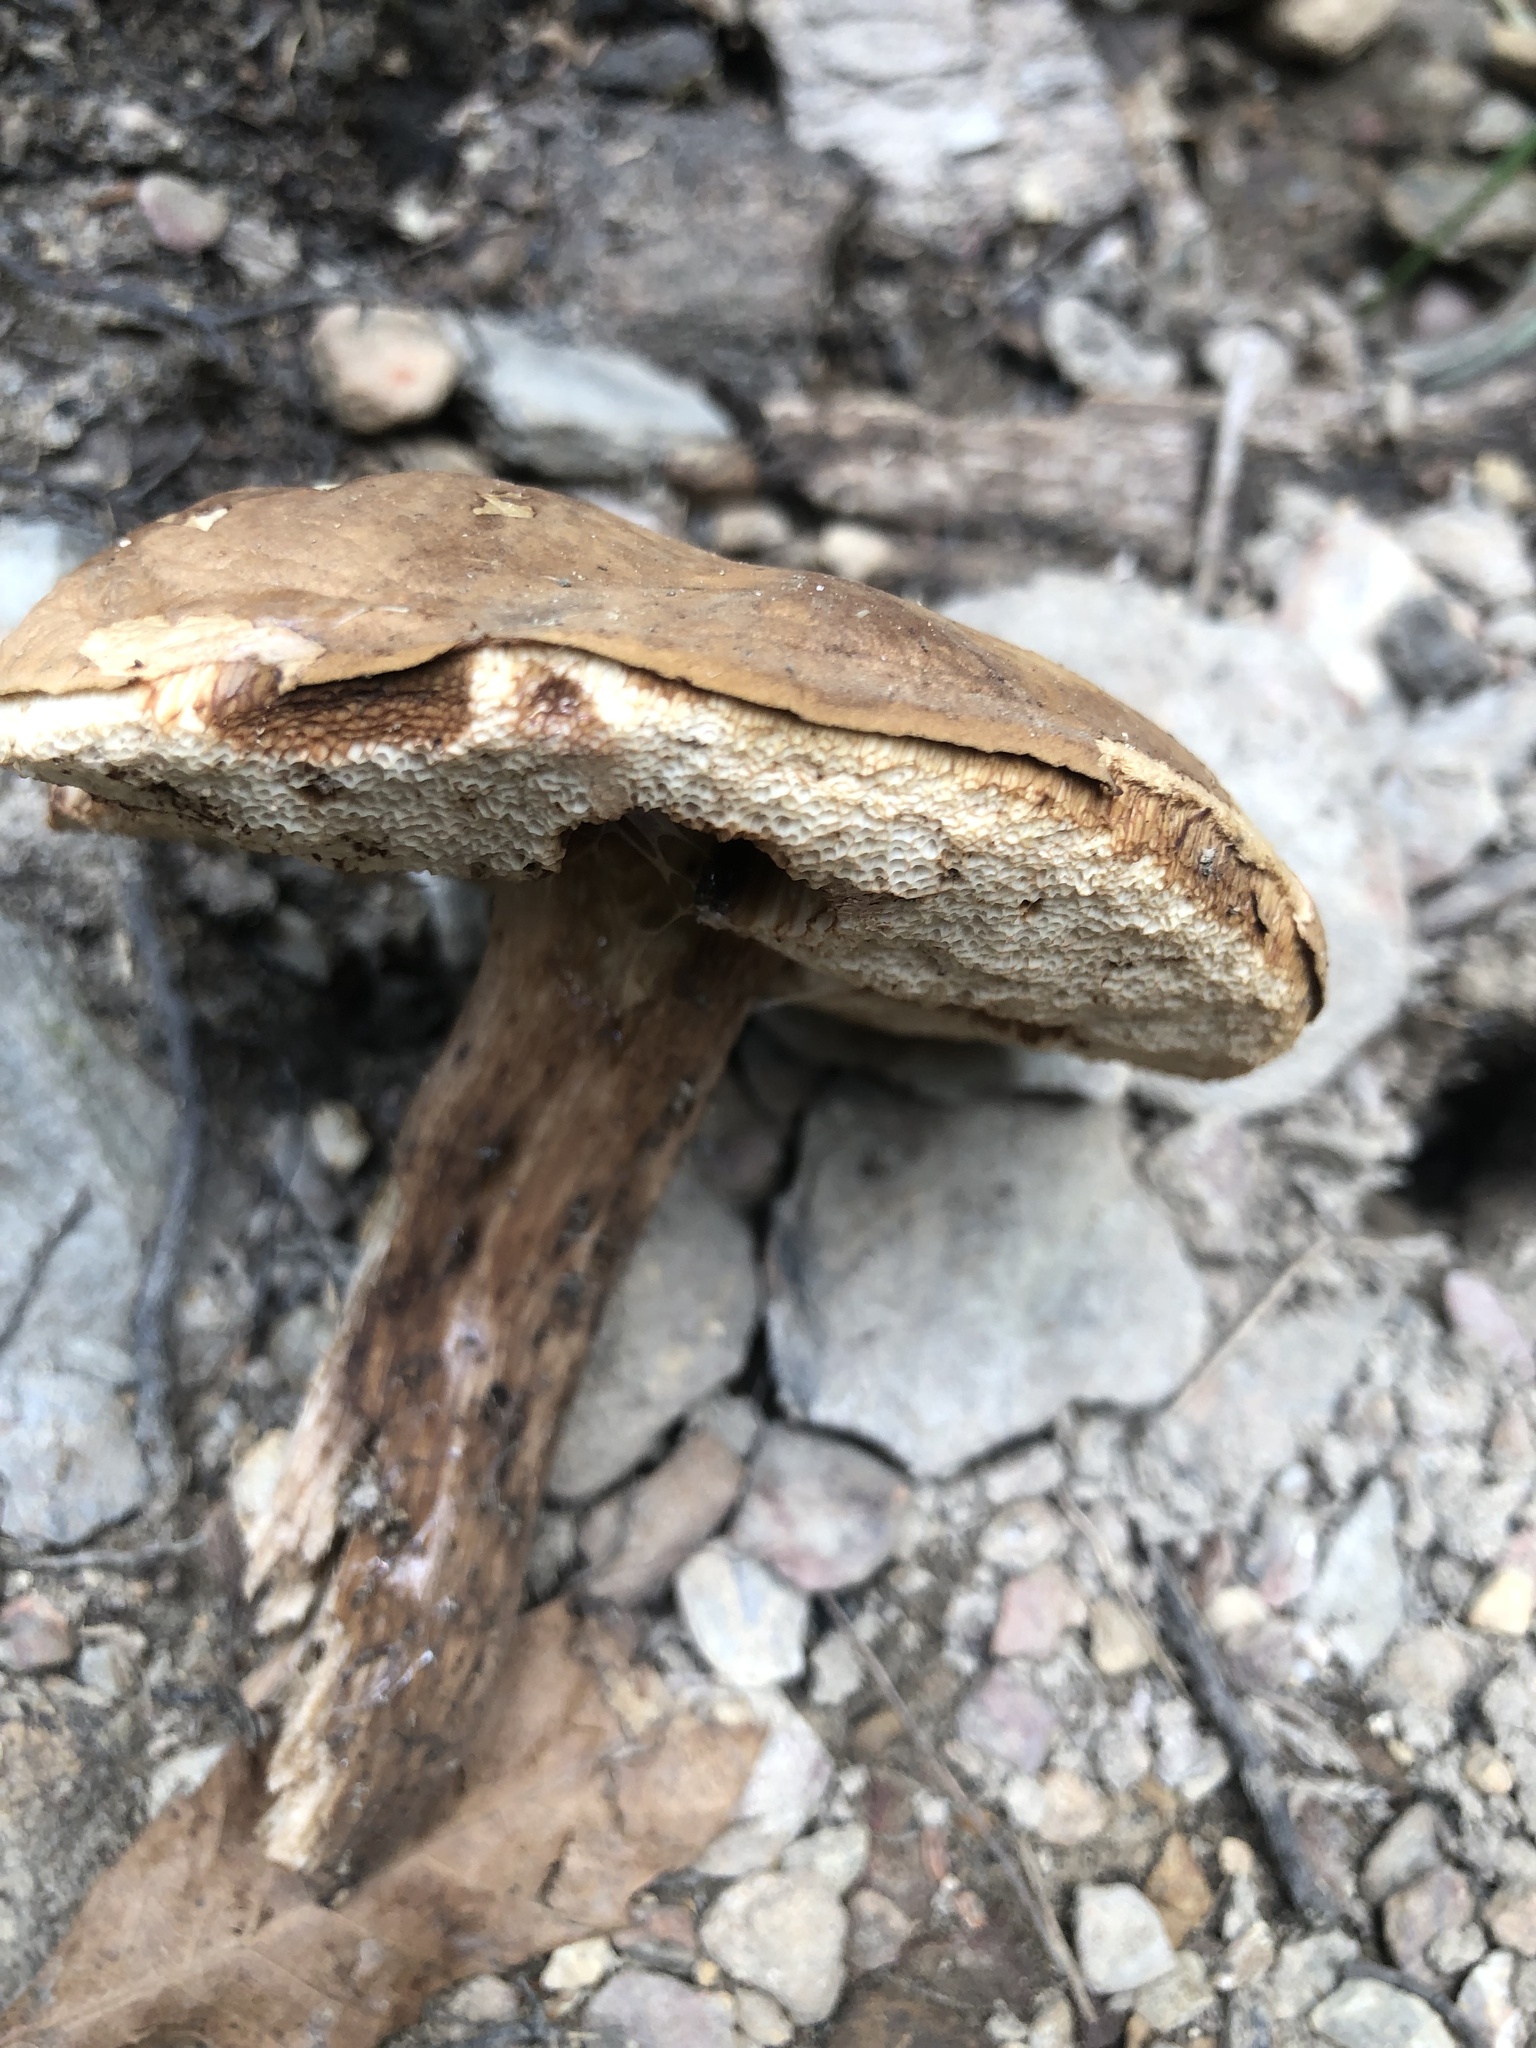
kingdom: Fungi
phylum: Basidiomycota
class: Agaricomycetes
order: Boletales
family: Boletaceae
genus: Xanthoconium
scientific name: Xanthoconium affine
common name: Spotted bolete
